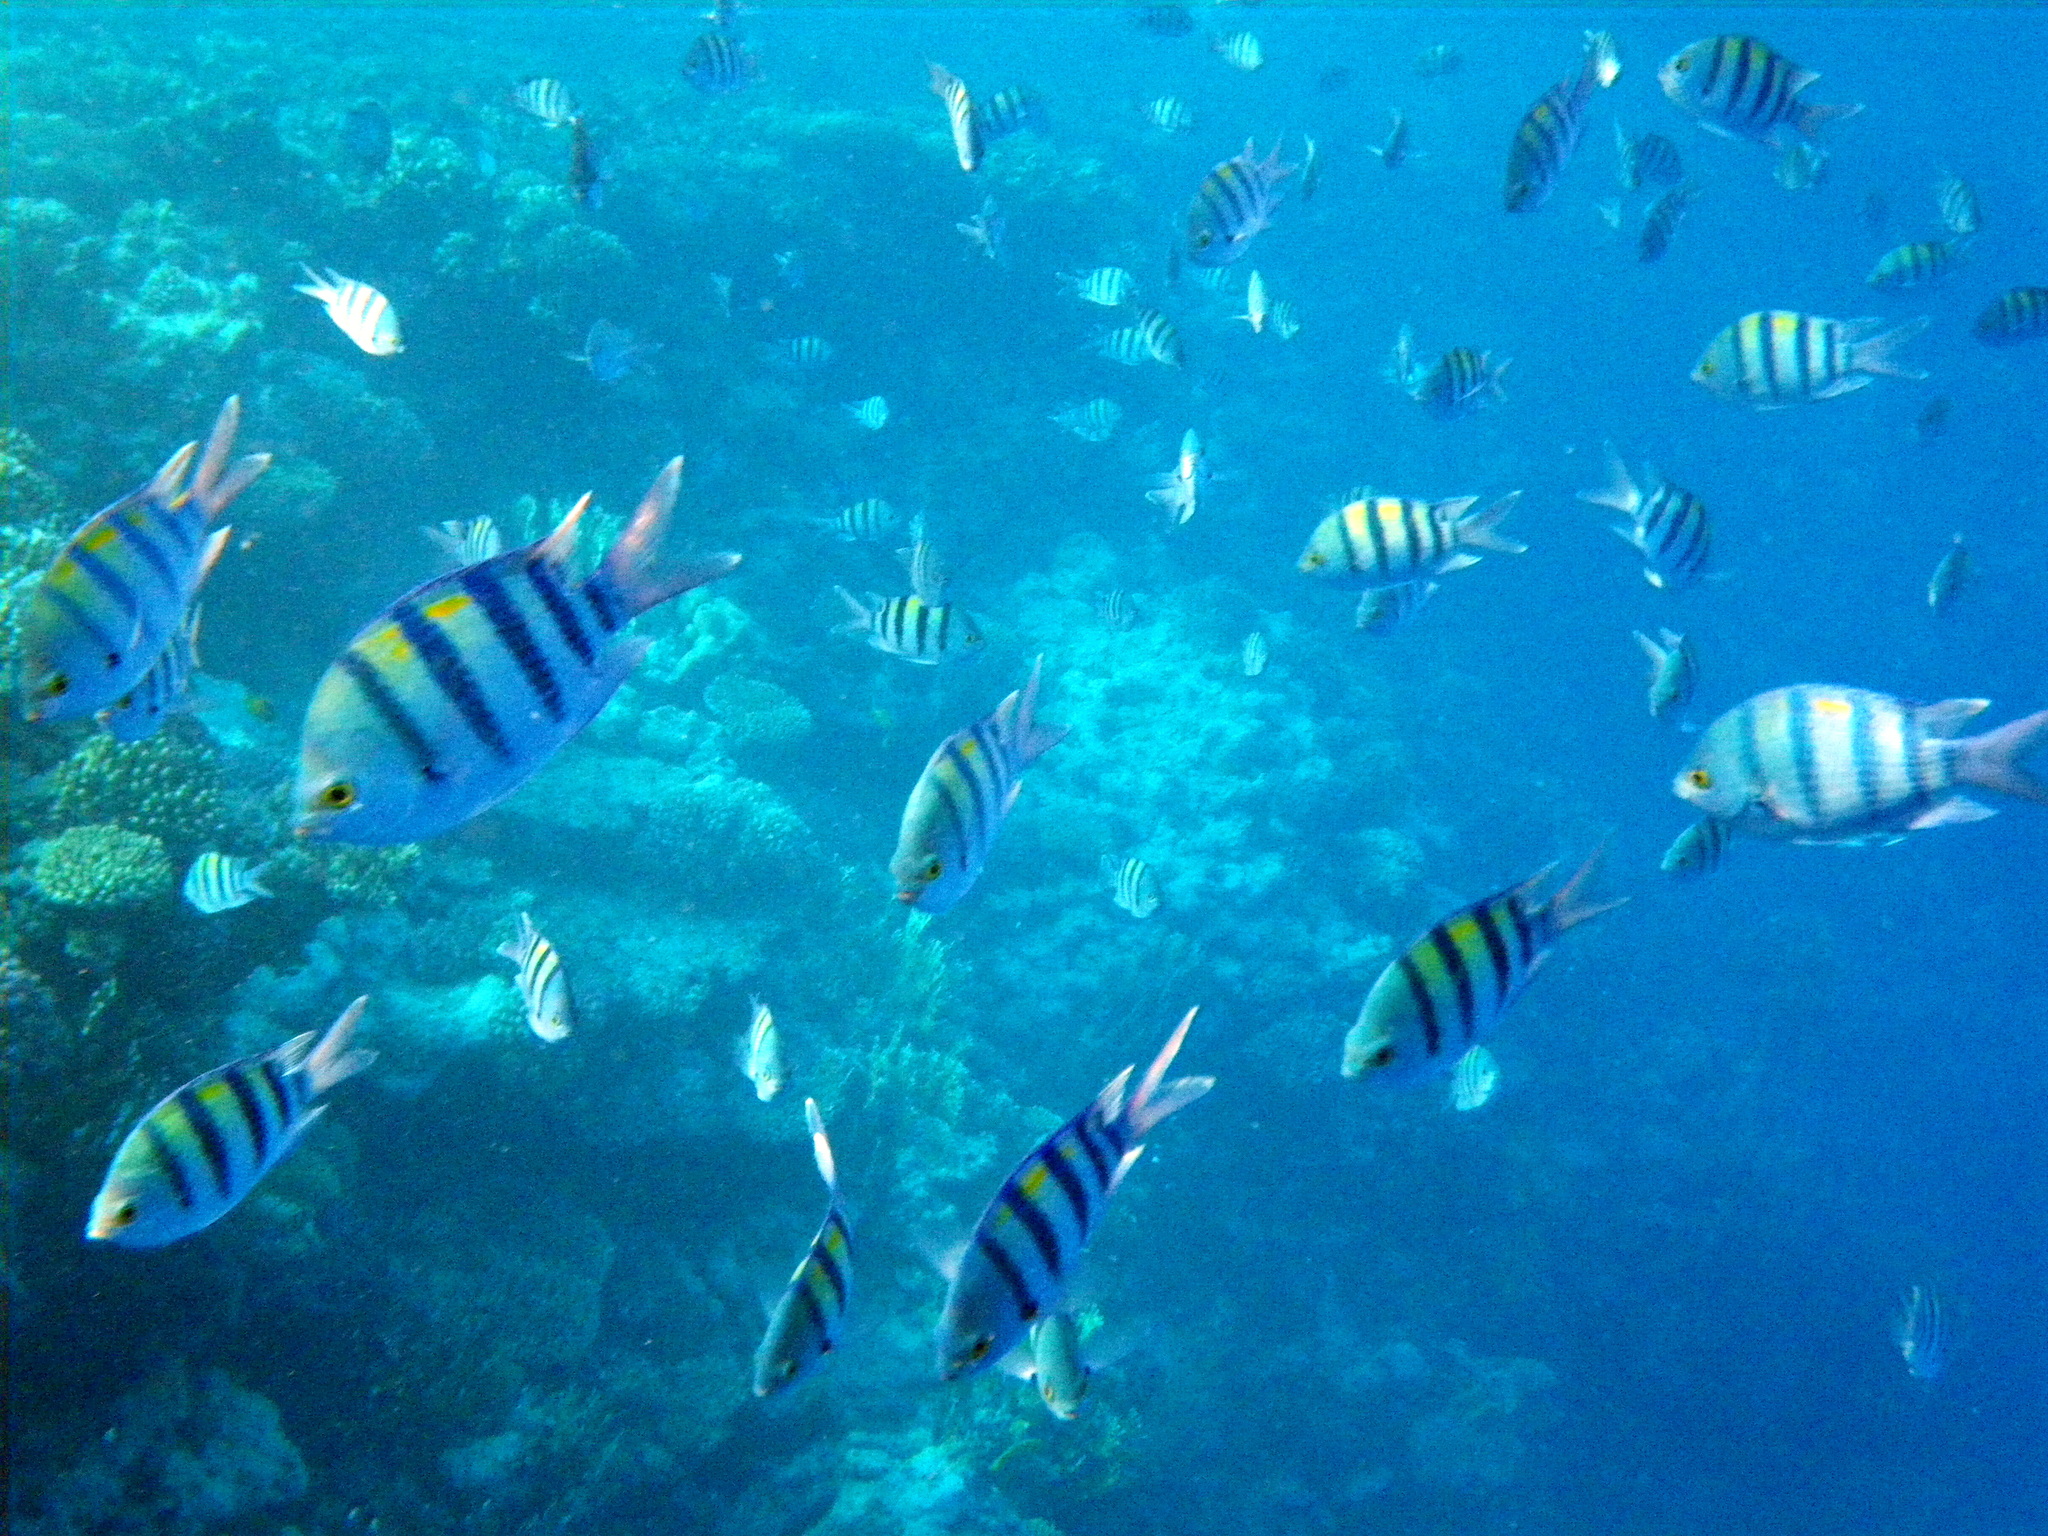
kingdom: Animalia
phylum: Chordata
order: Perciformes
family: Pomacentridae
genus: Abudefduf
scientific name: Abudefduf vaigiensis
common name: Indo-pacific sergeant
